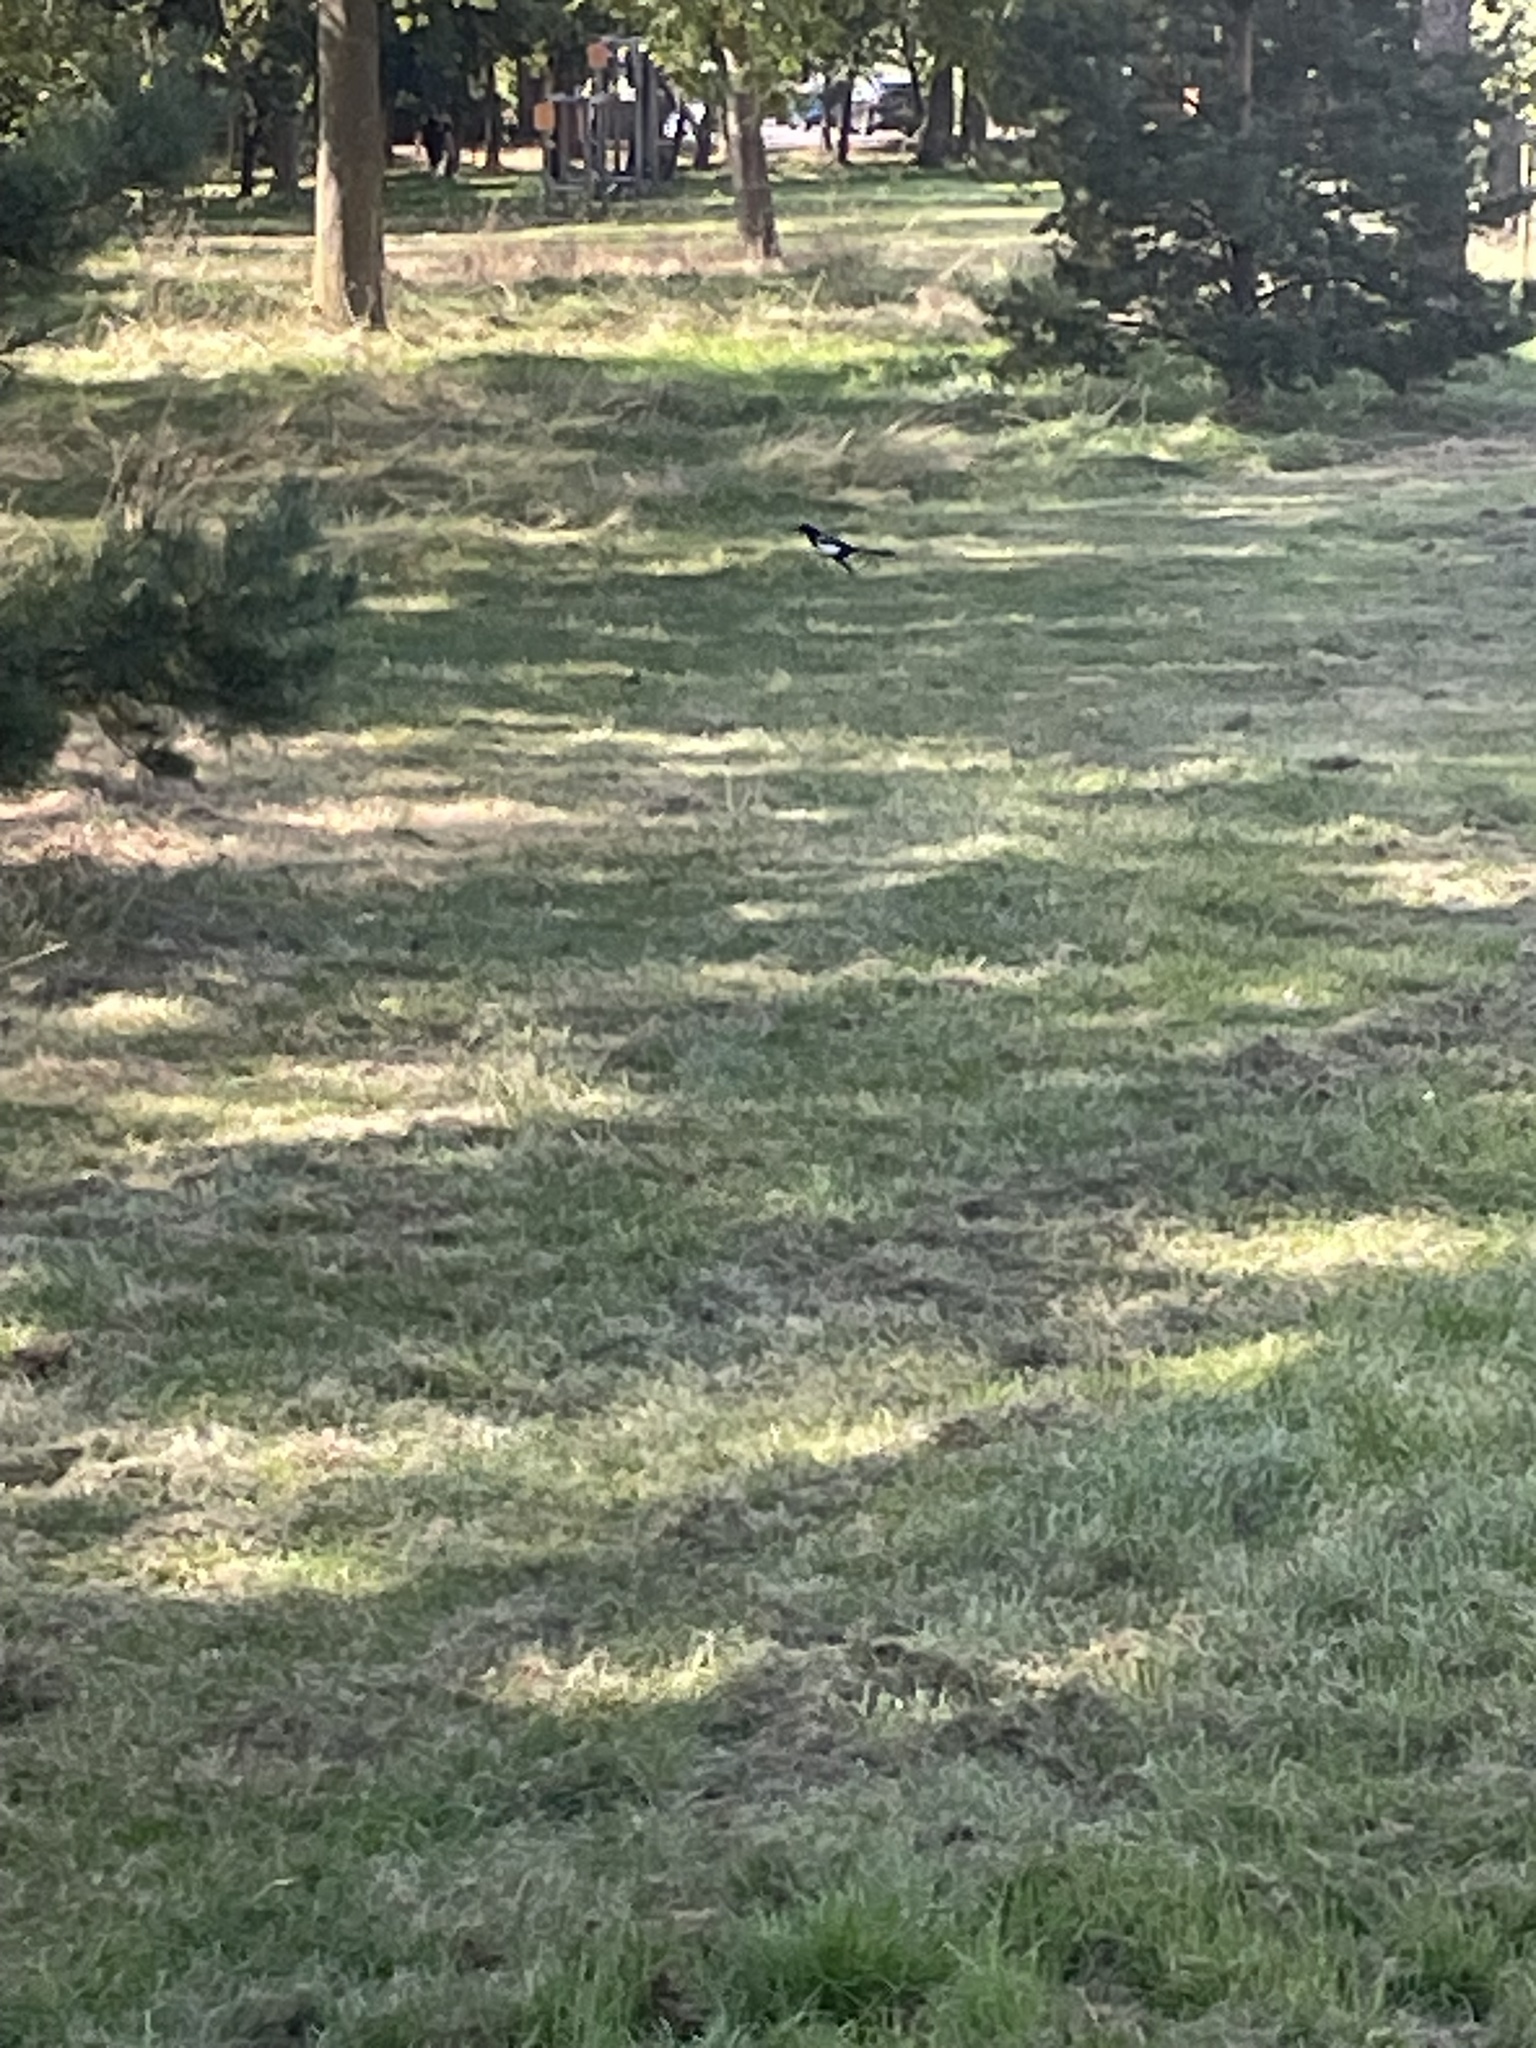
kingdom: Animalia
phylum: Chordata
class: Aves
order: Passeriformes
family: Corvidae
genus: Pica
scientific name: Pica pica
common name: Eurasian magpie
